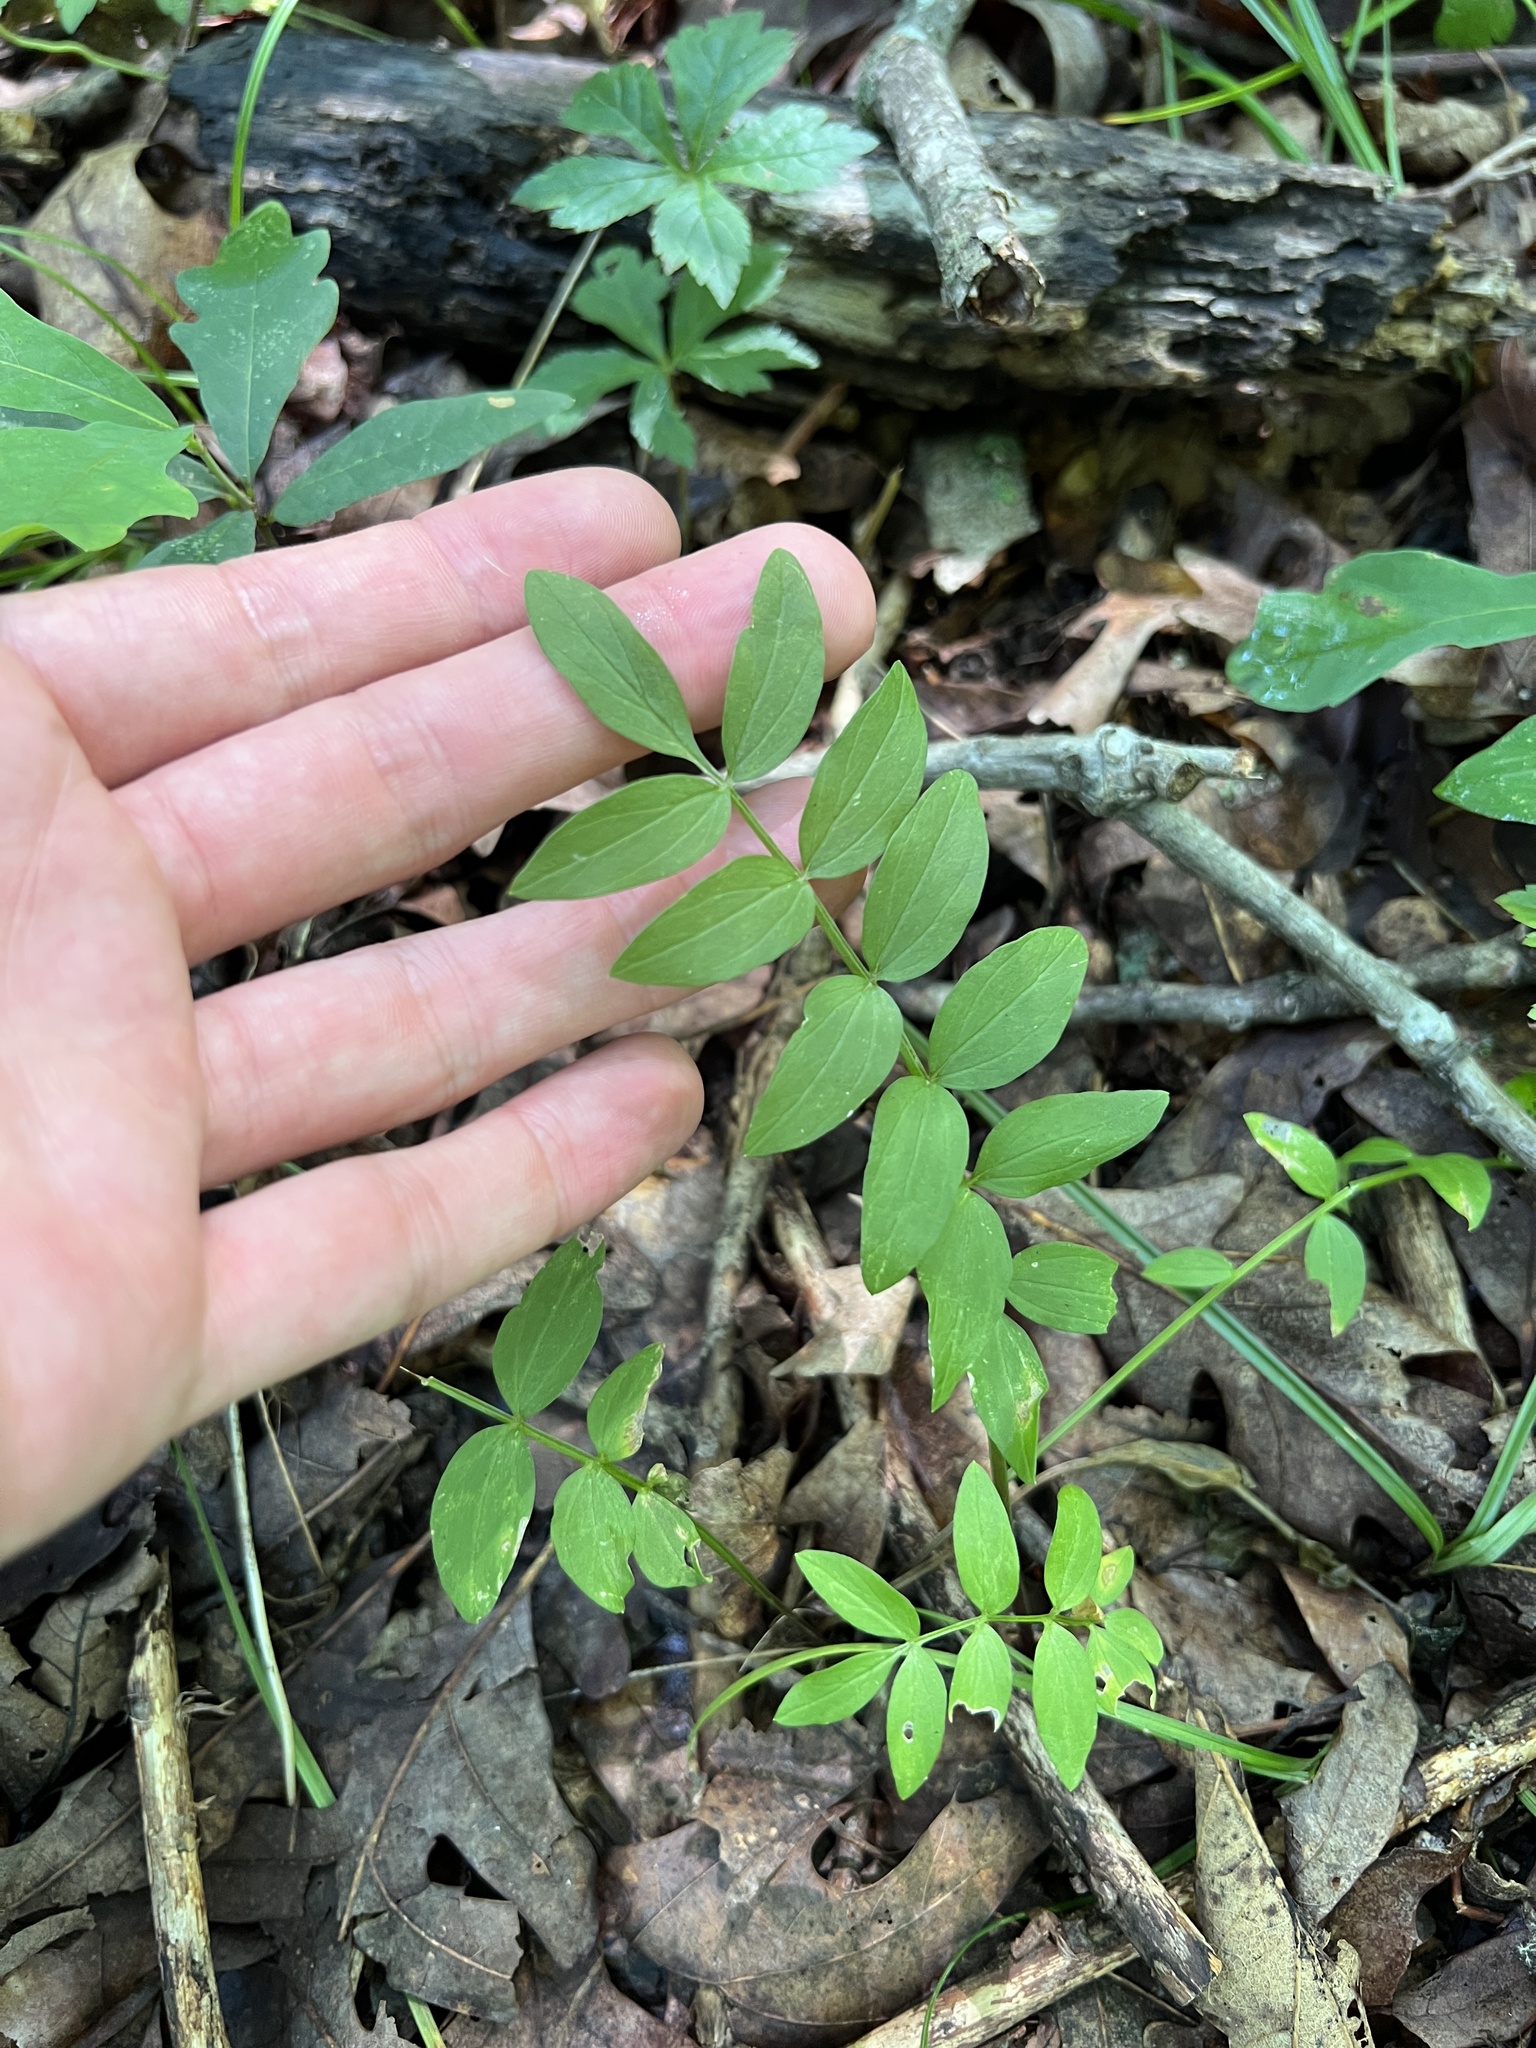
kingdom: Plantae
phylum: Tracheophyta
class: Magnoliopsida
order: Ericales
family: Polemoniaceae
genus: Polemonium
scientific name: Polemonium reptans
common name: Creeping jacob's-ladder
